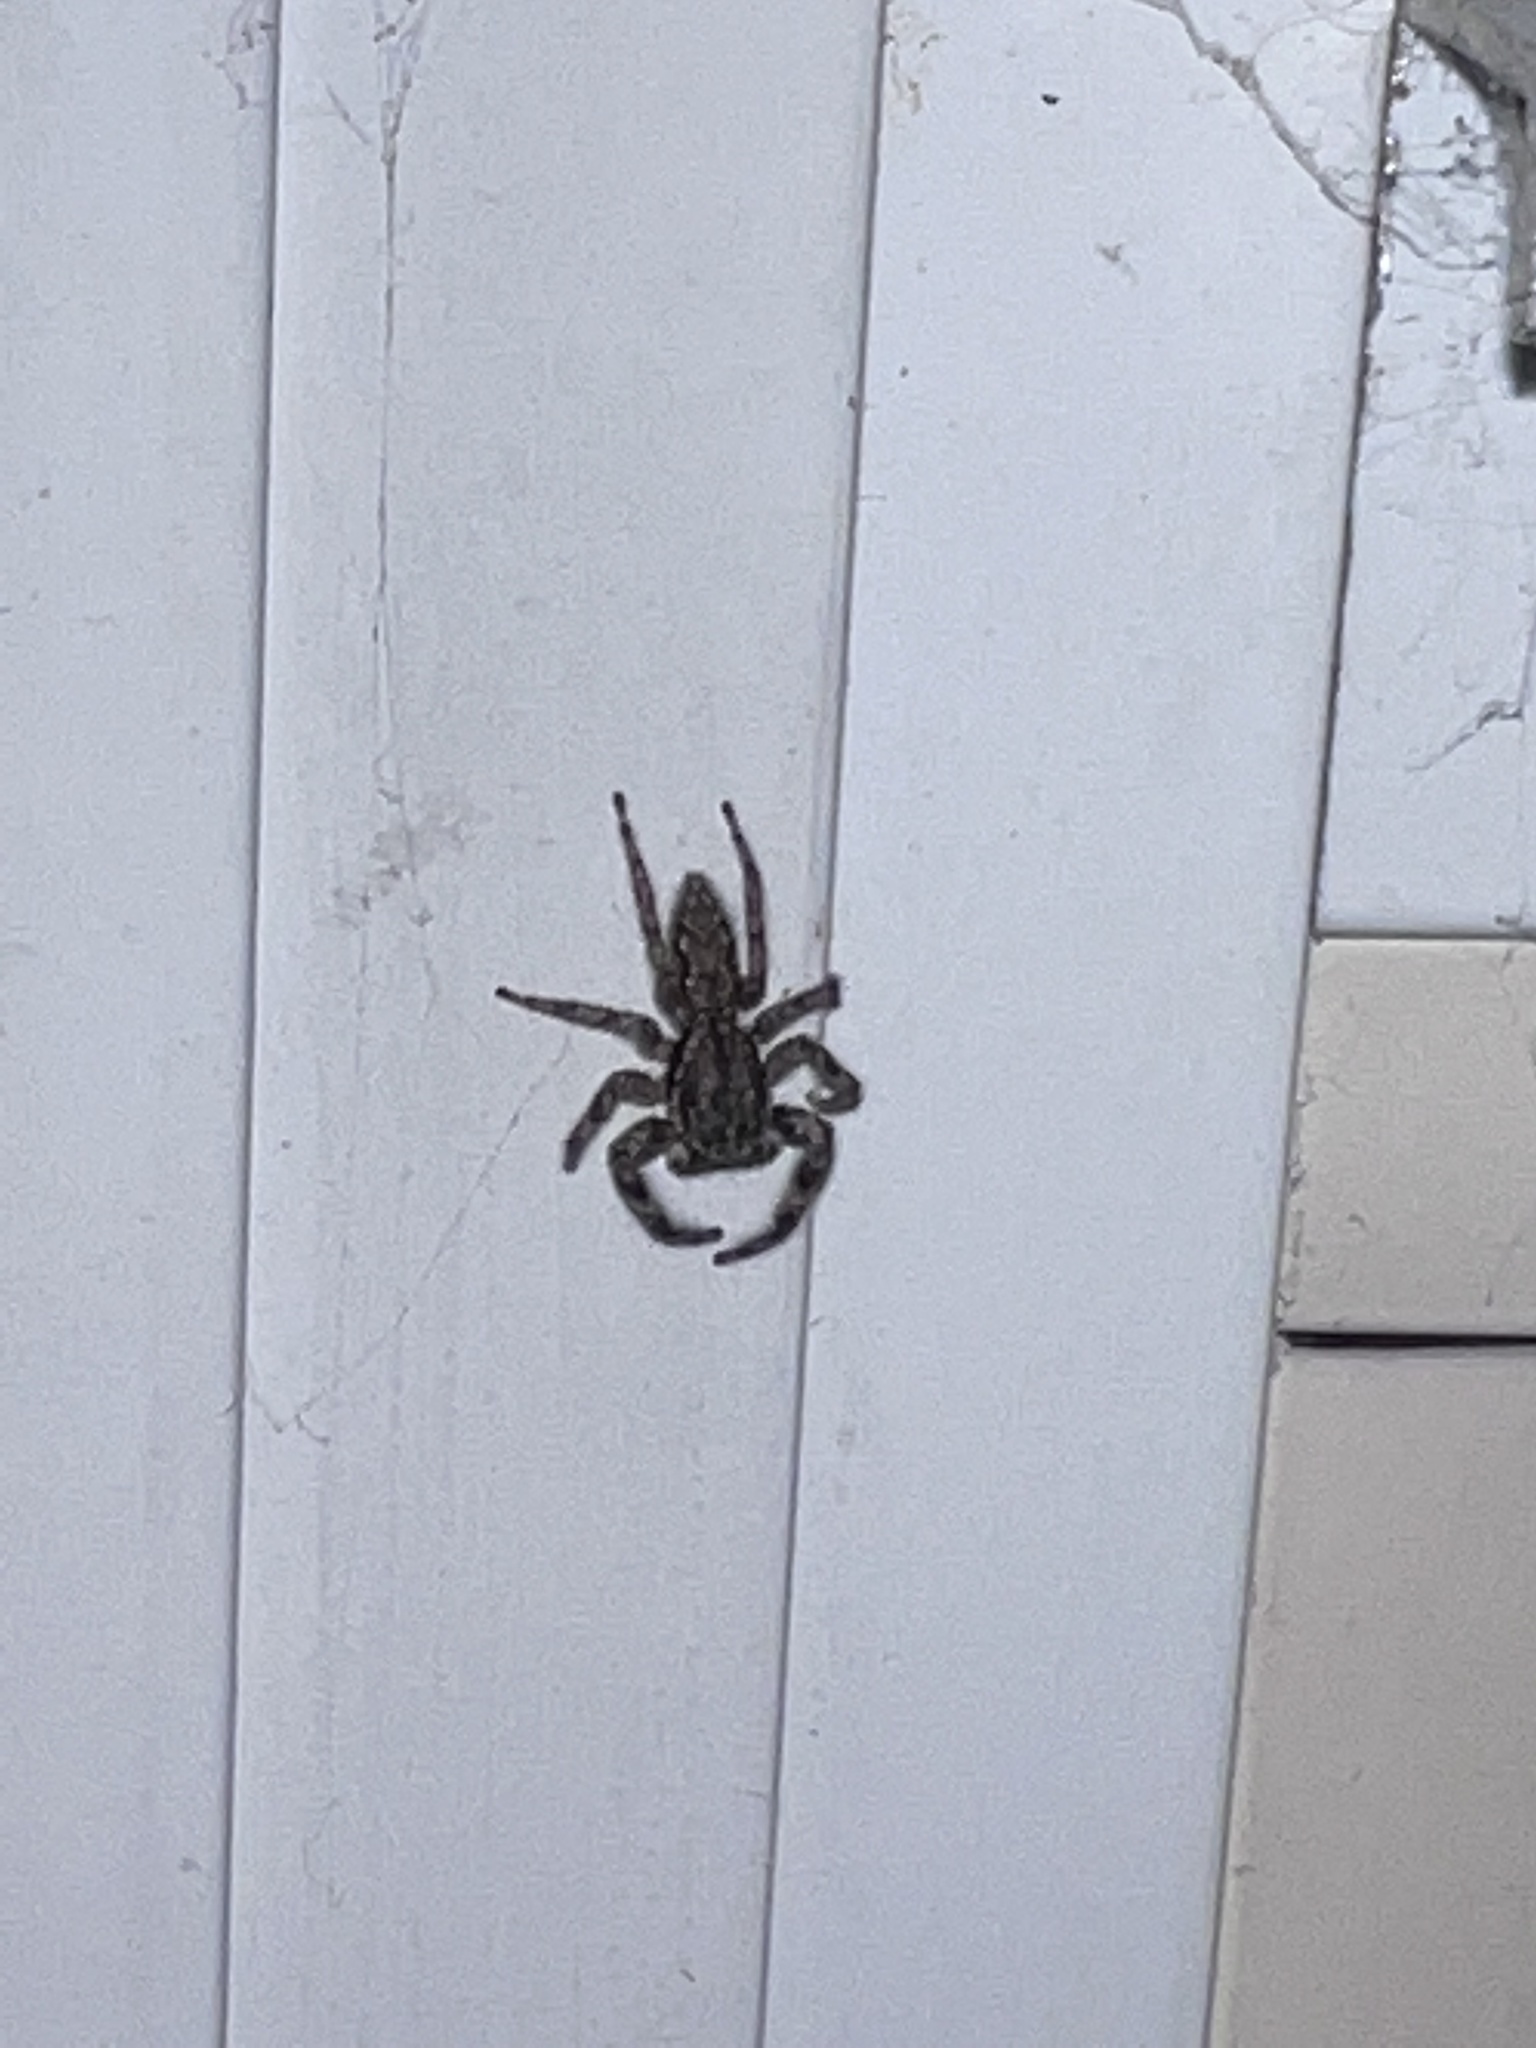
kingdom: Animalia
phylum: Arthropoda
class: Arachnida
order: Araneae
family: Salticidae
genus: Platycryptus
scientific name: Platycryptus undatus
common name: Tan jumping spider
